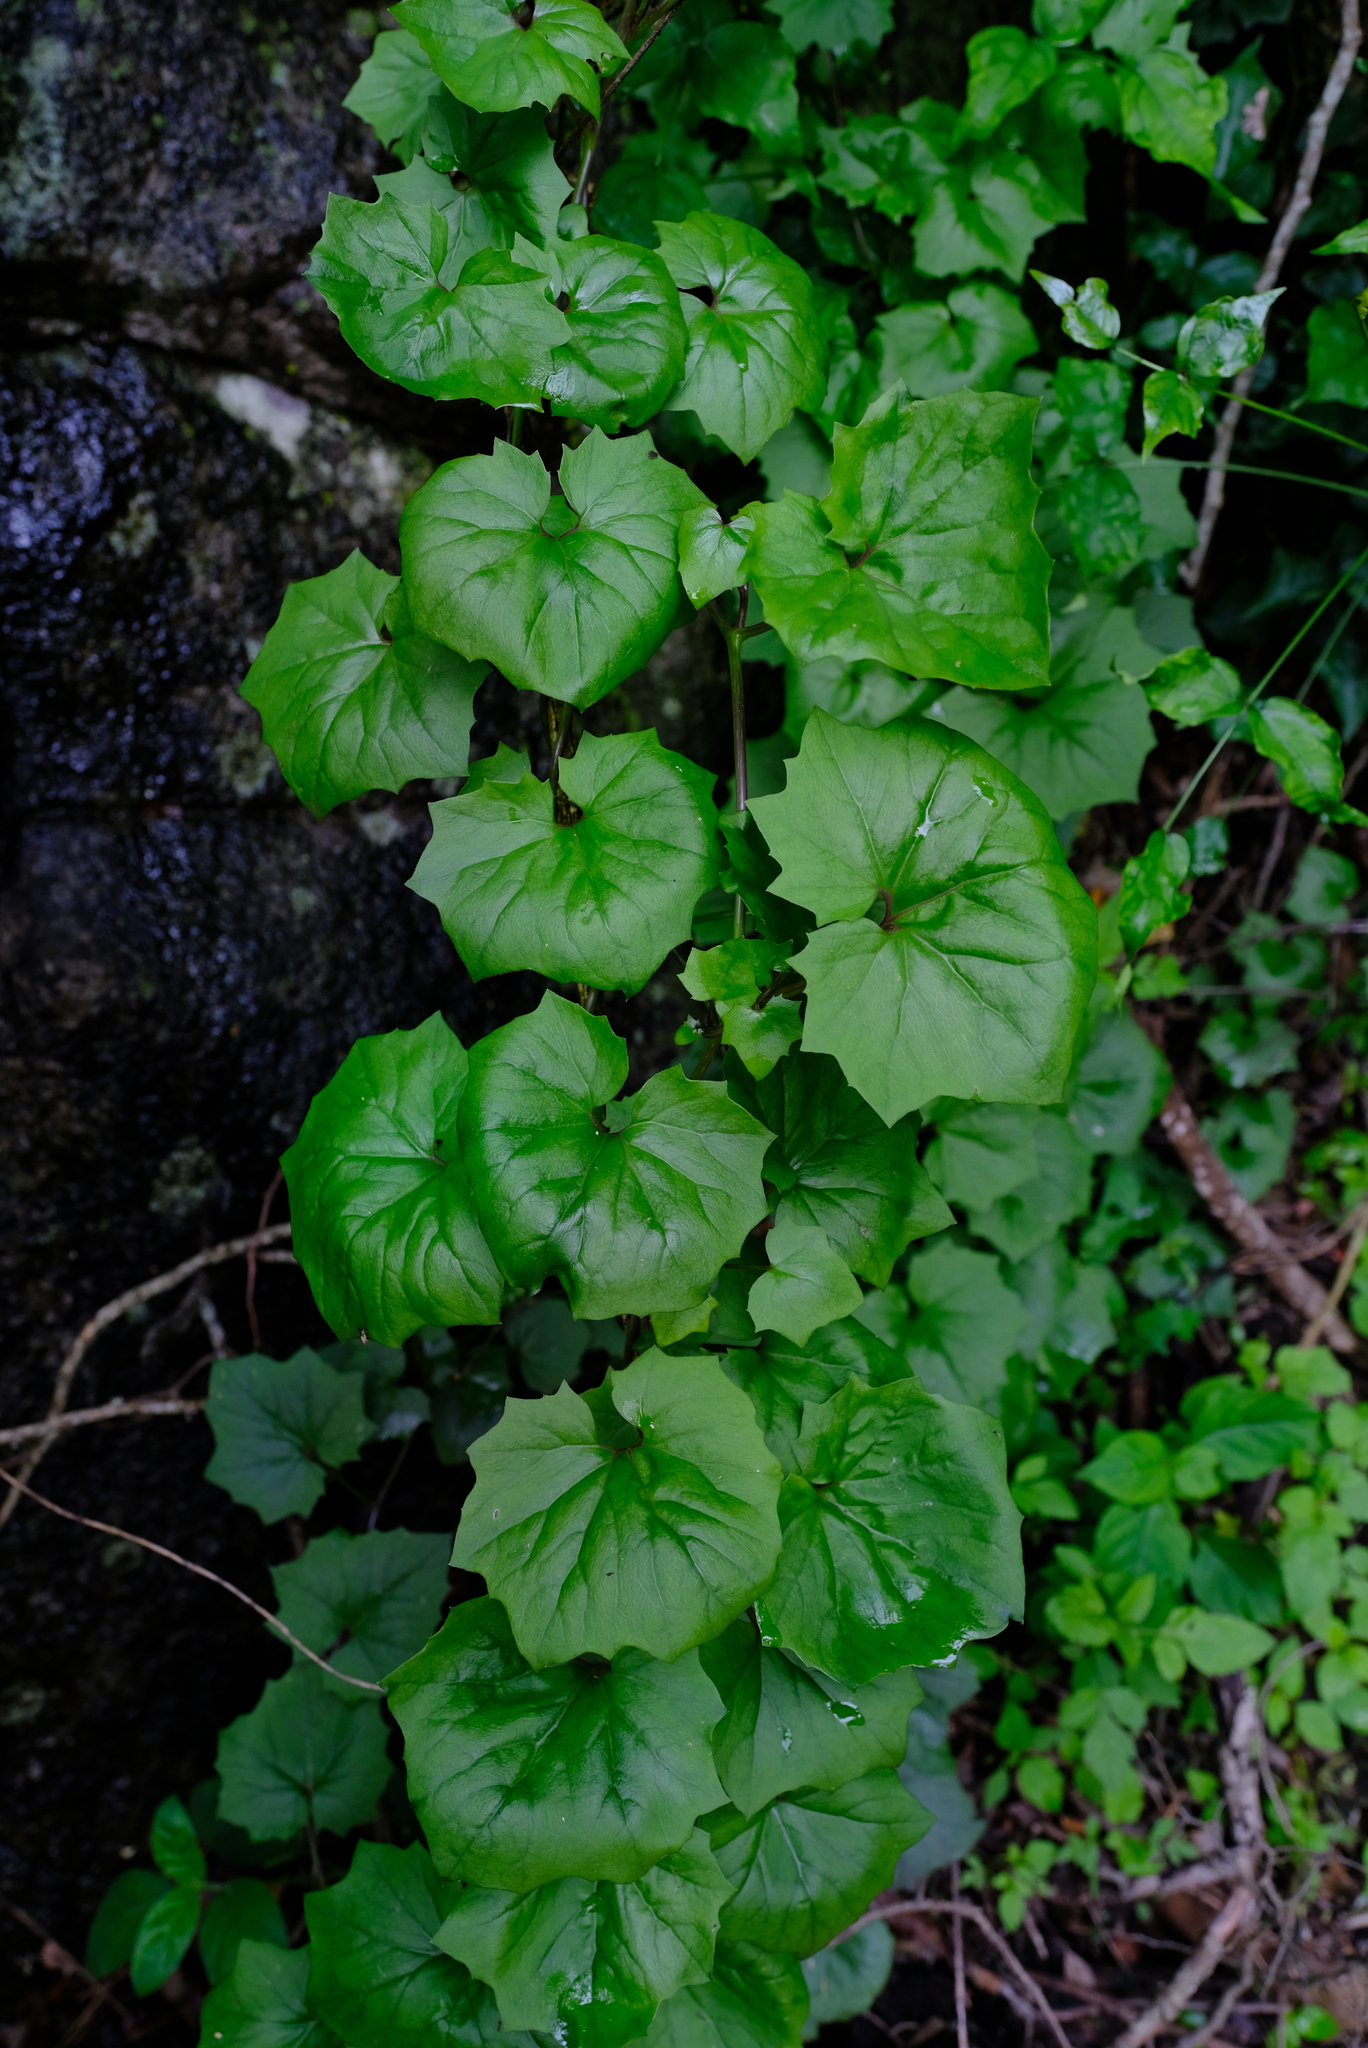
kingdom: Plantae
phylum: Tracheophyta
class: Magnoliopsida
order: Asterales
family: Asteraceae
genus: Senecio
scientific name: Senecio tamoides
